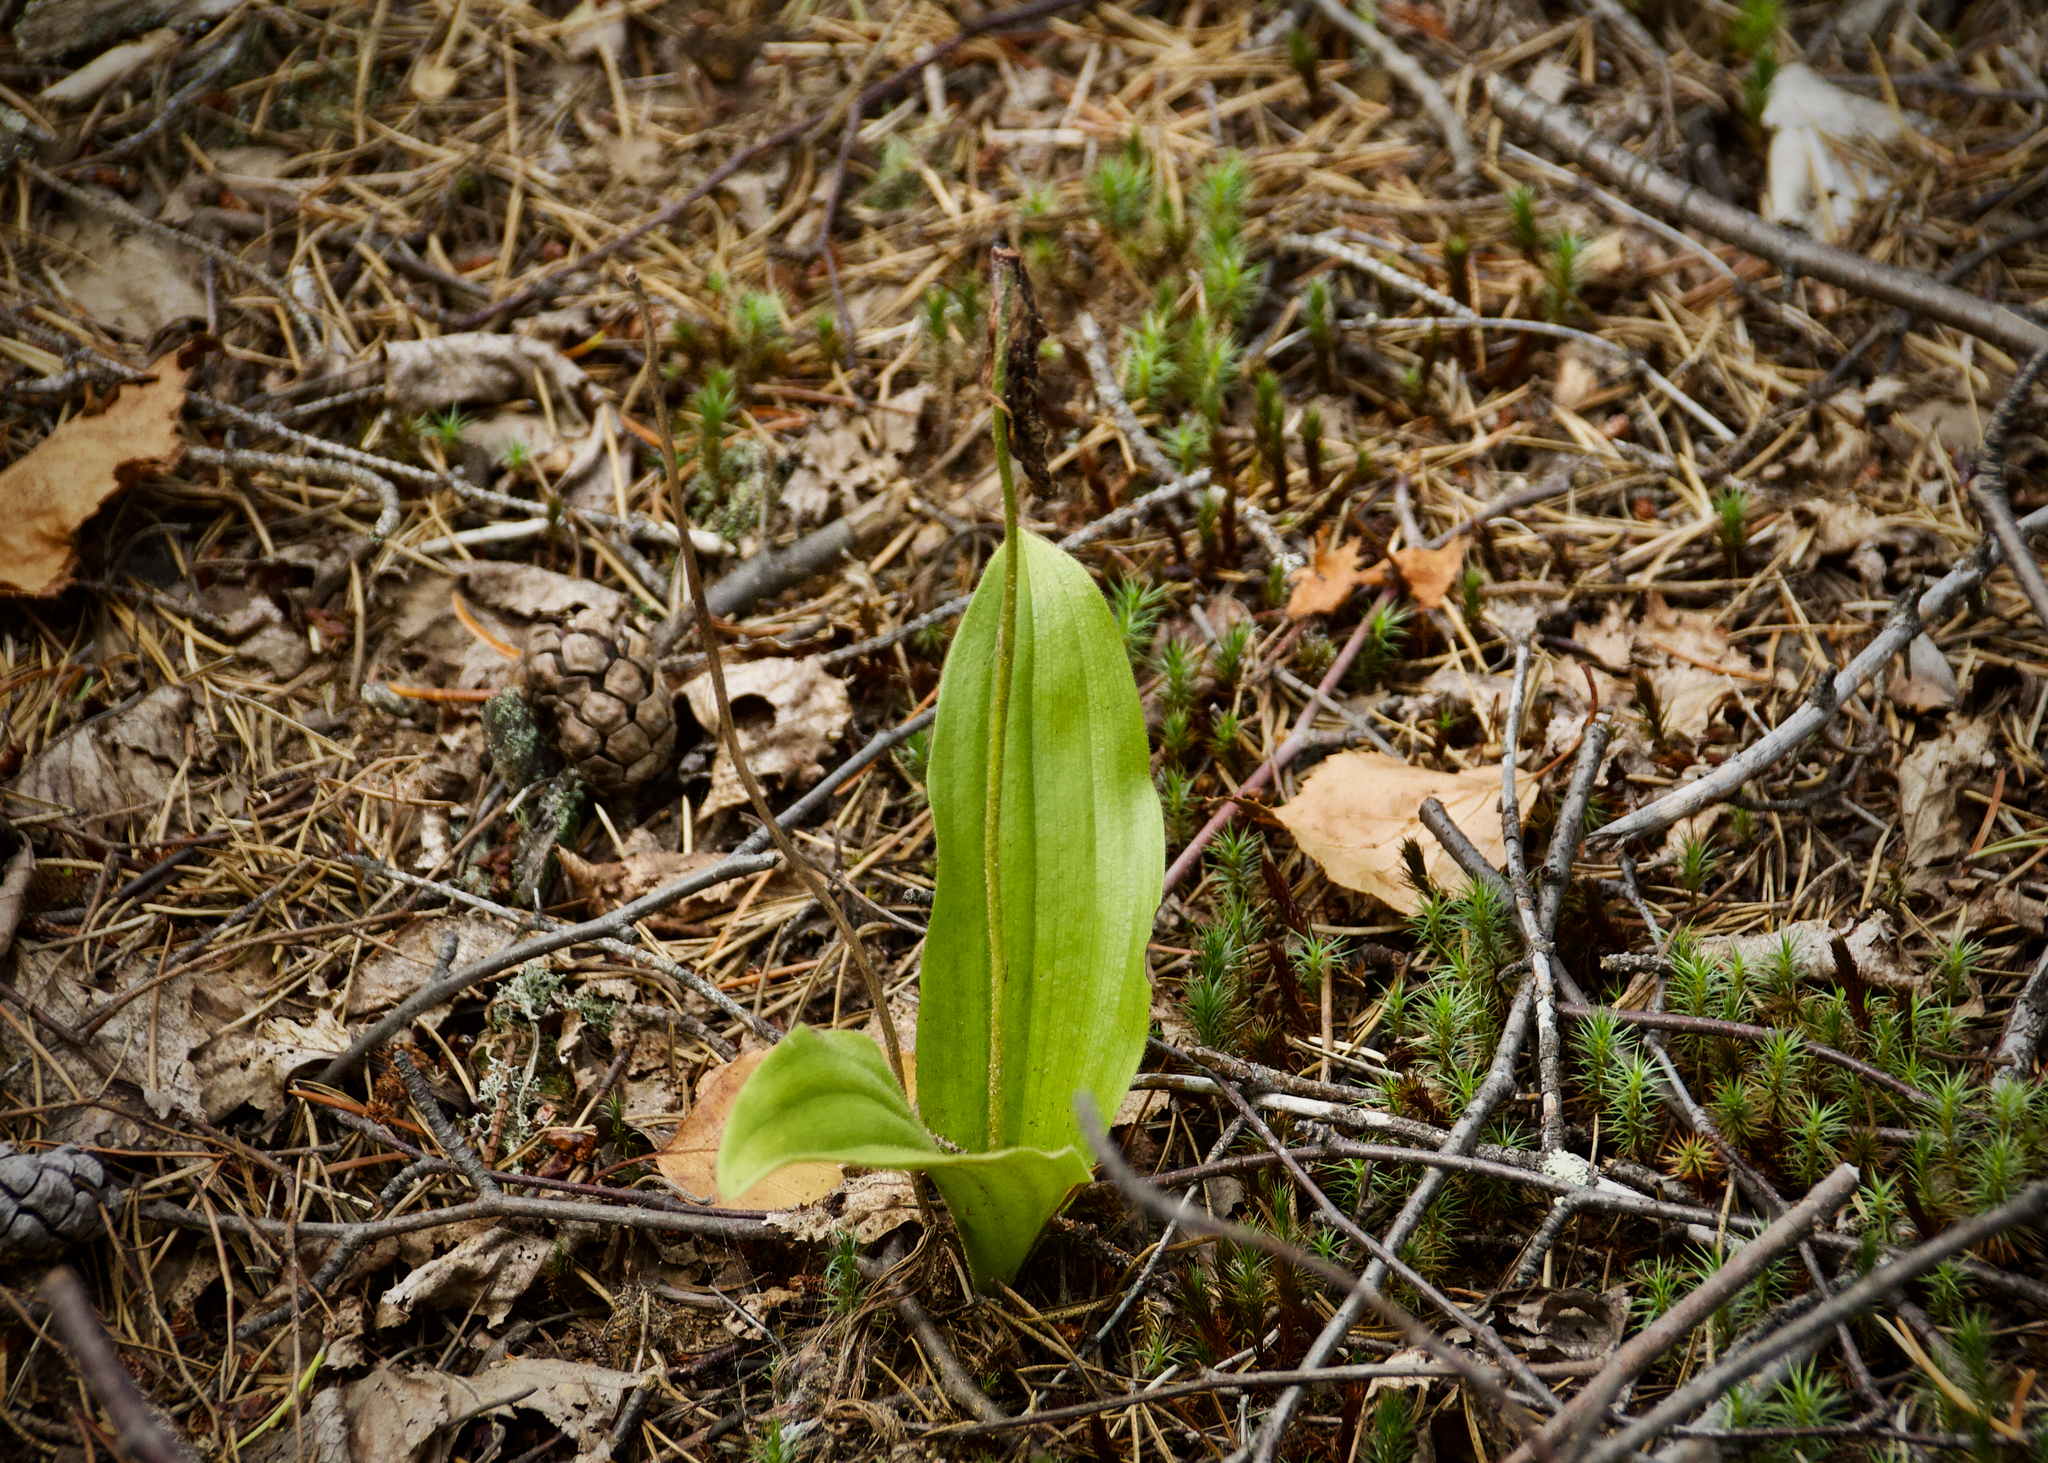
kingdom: Plantae
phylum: Tracheophyta
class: Liliopsida
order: Asparagales
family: Orchidaceae
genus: Cypripedium
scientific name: Cypripedium acaule
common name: Pink lady's-slipper
